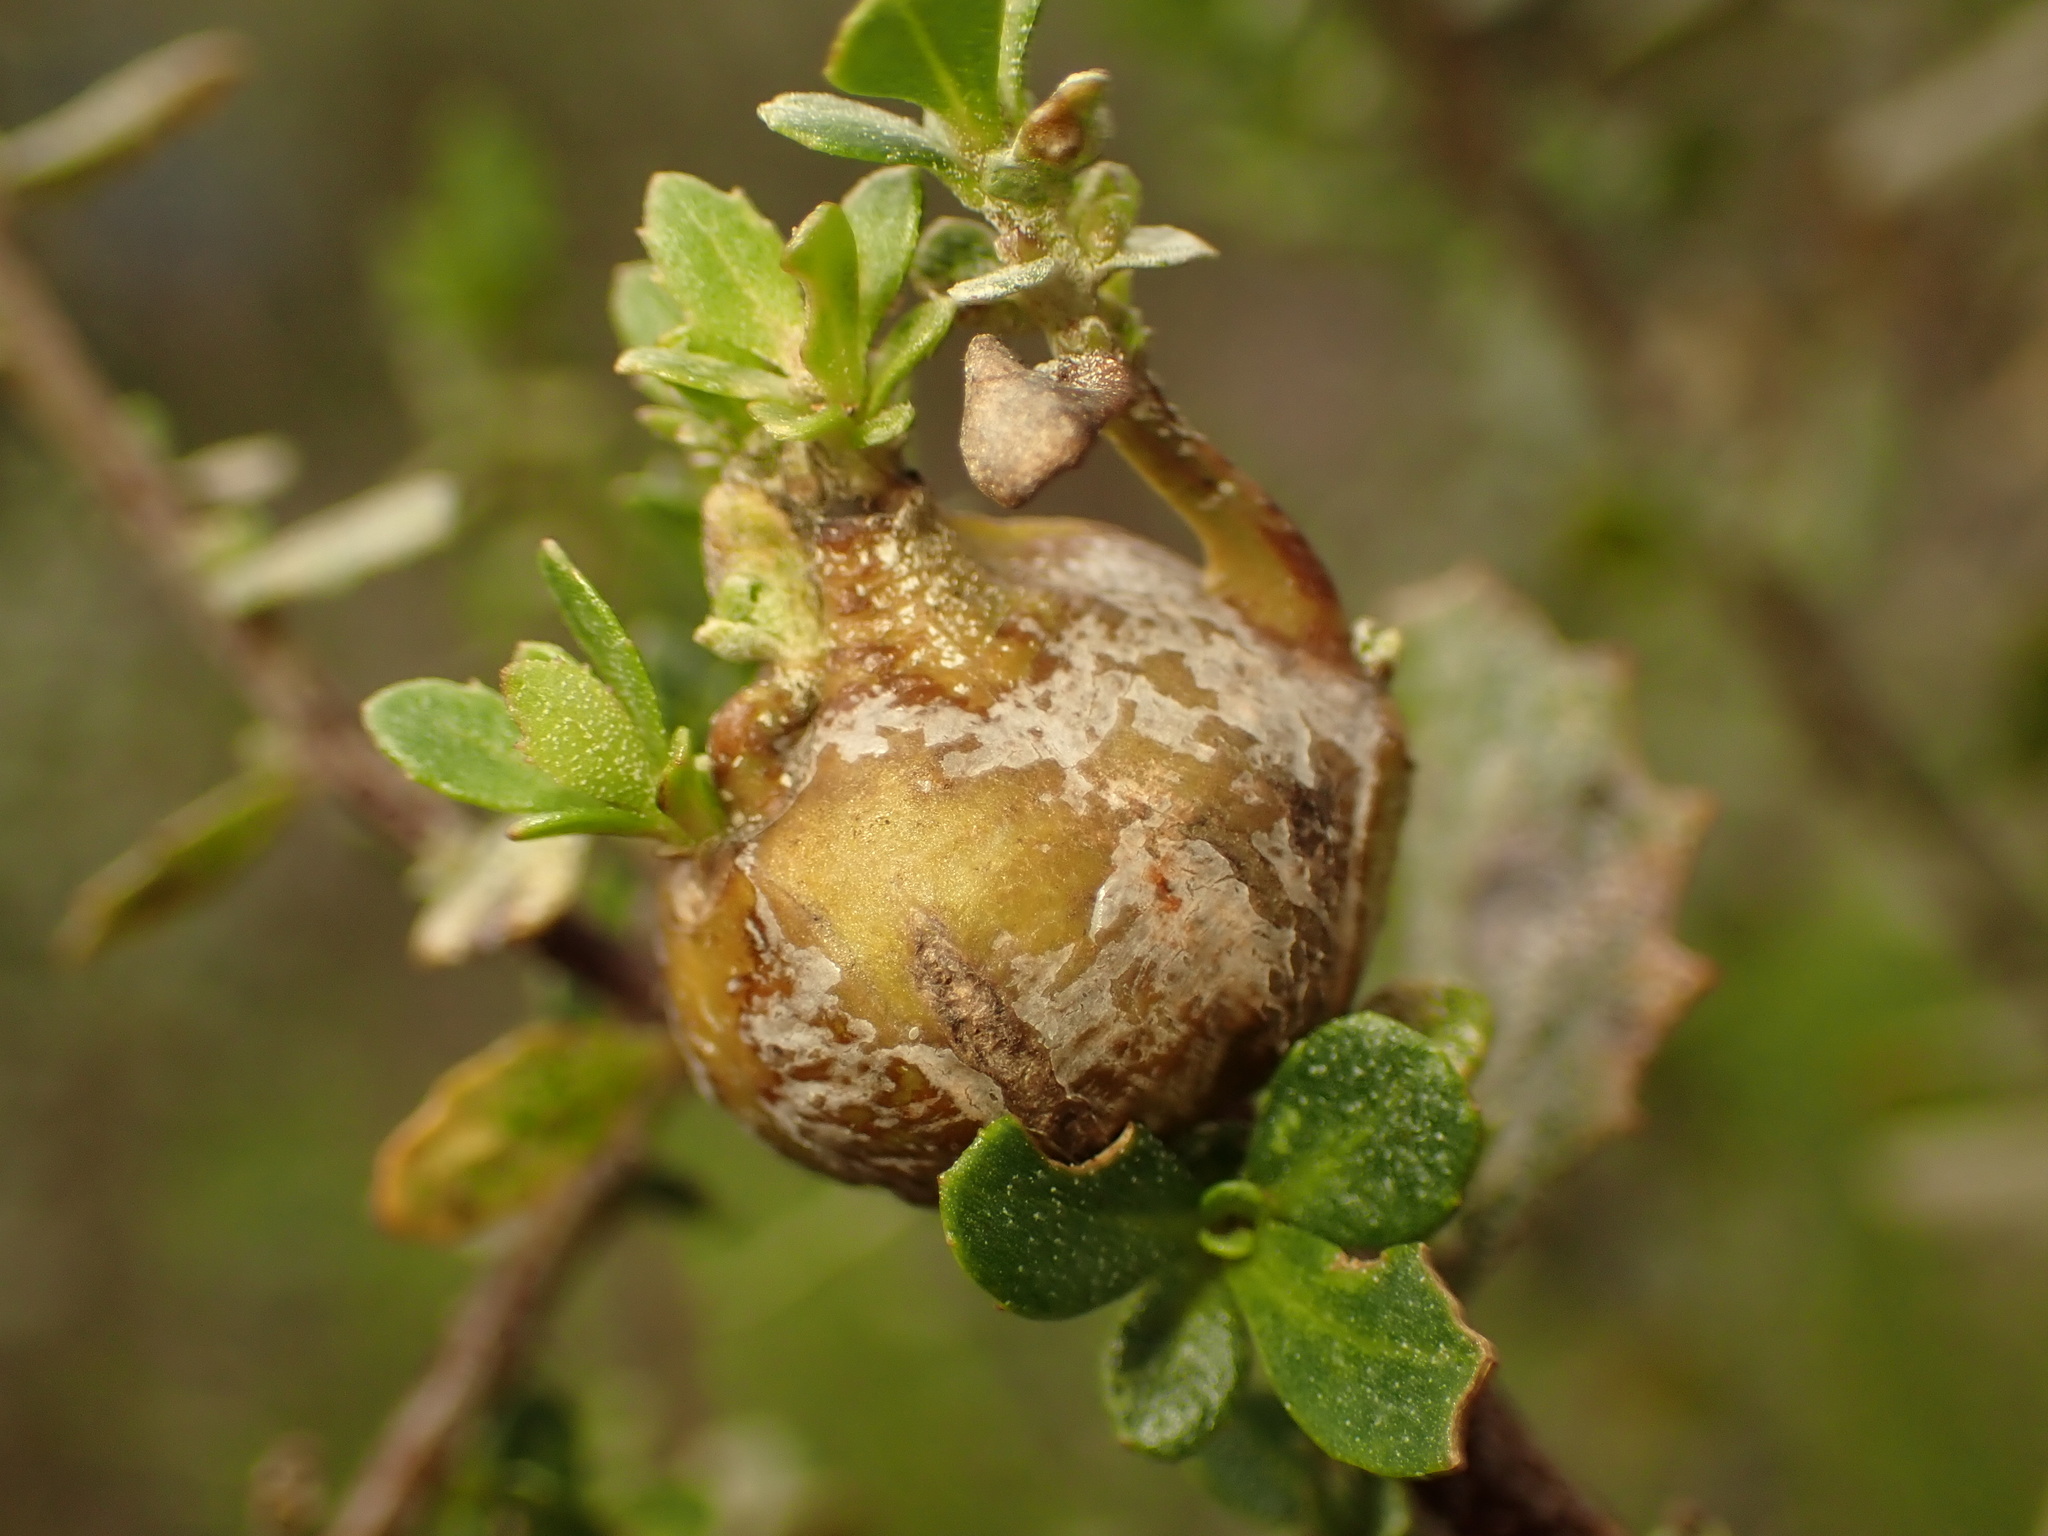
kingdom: Animalia
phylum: Arthropoda
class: Insecta
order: Lepidoptera
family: Gelechiidae
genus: Gnorimoschema
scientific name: Gnorimoschema baccharisella
